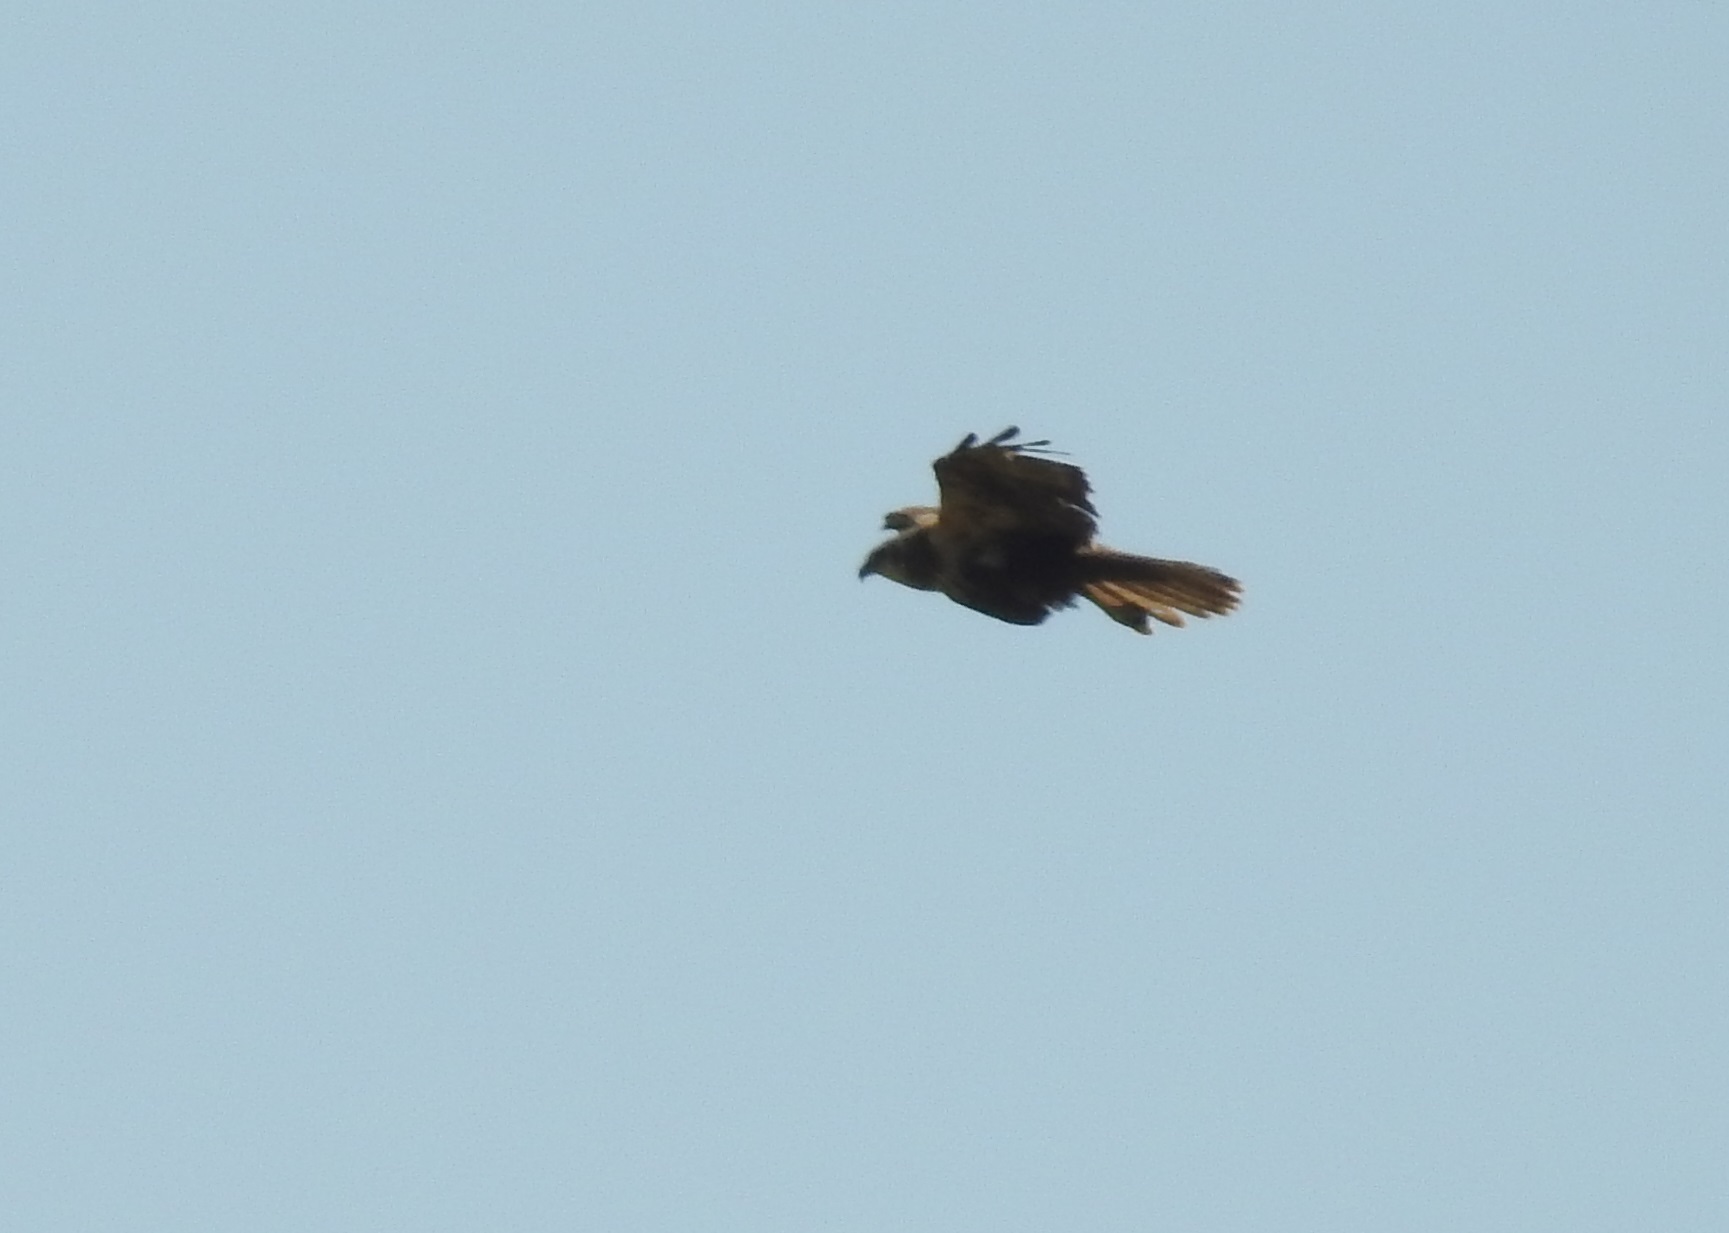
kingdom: Animalia
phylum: Chordata
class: Aves
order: Accipitriformes
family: Accipitridae
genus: Circus
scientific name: Circus aeruginosus
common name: Western marsh harrier
